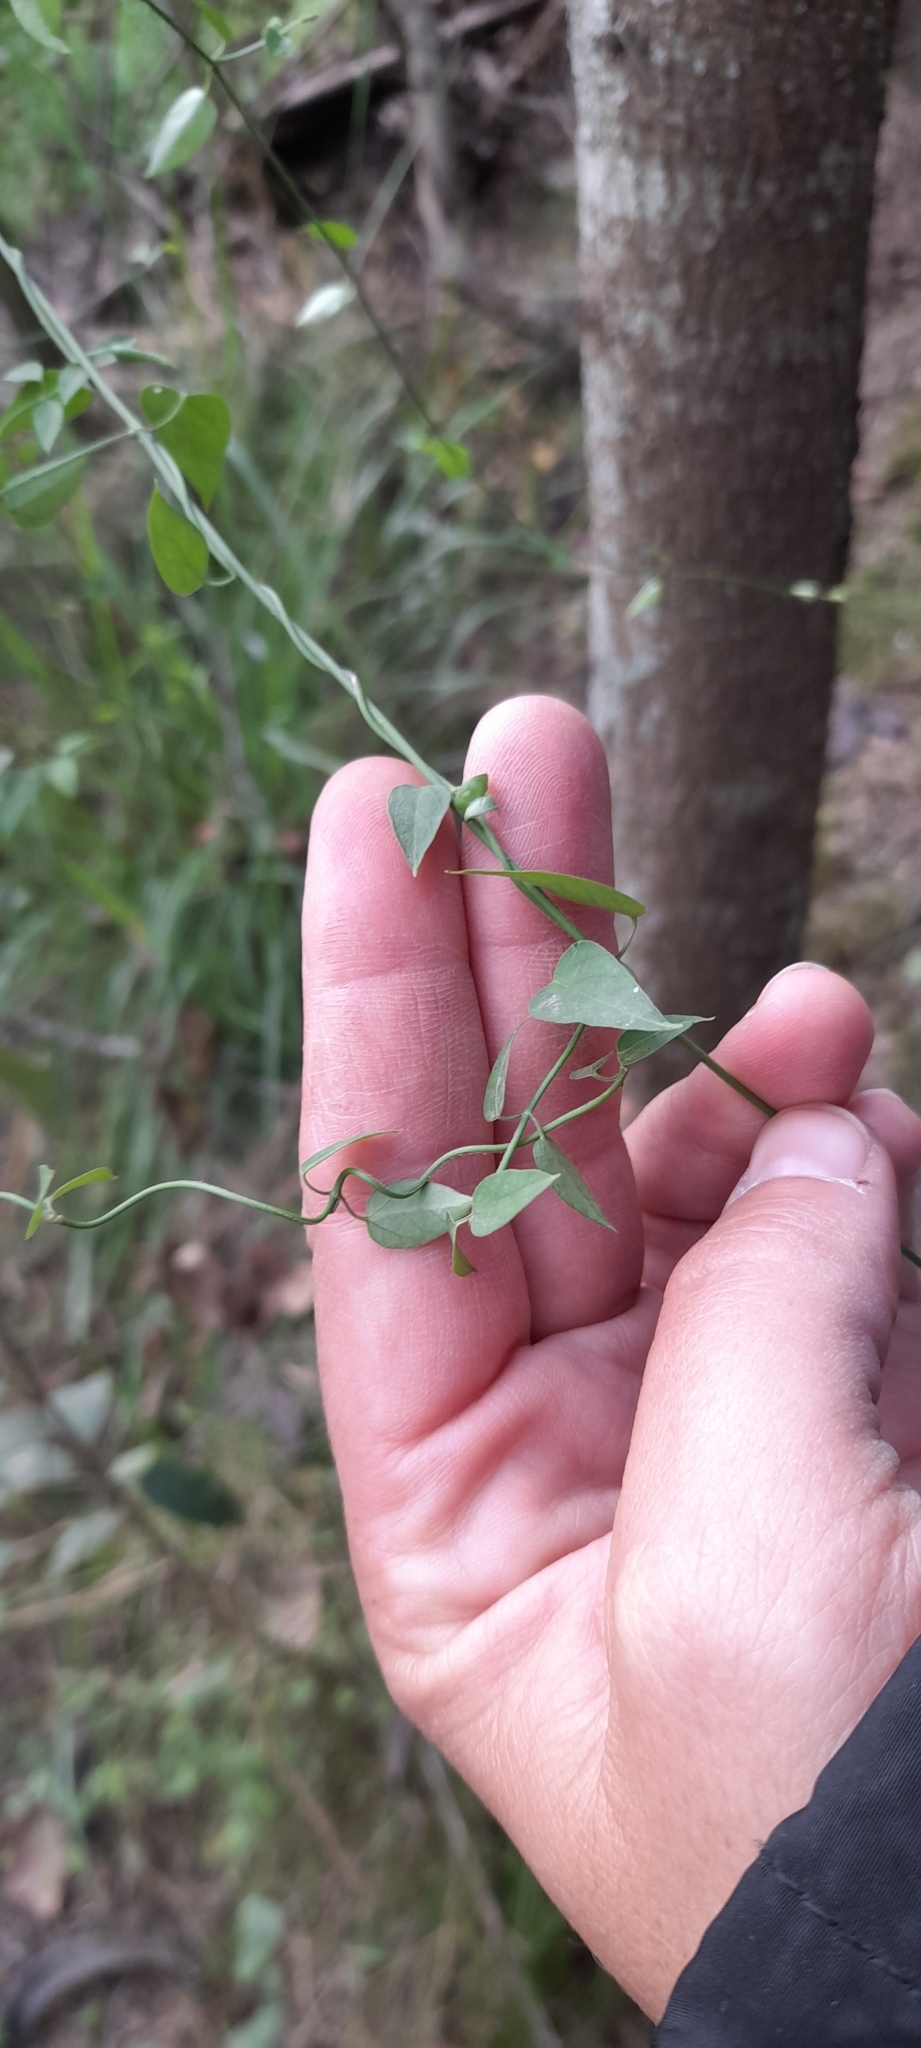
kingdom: Plantae
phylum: Tracheophyta
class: Magnoliopsida
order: Gentianales
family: Apocynaceae
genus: Orthosia
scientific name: Orthosia virgata
